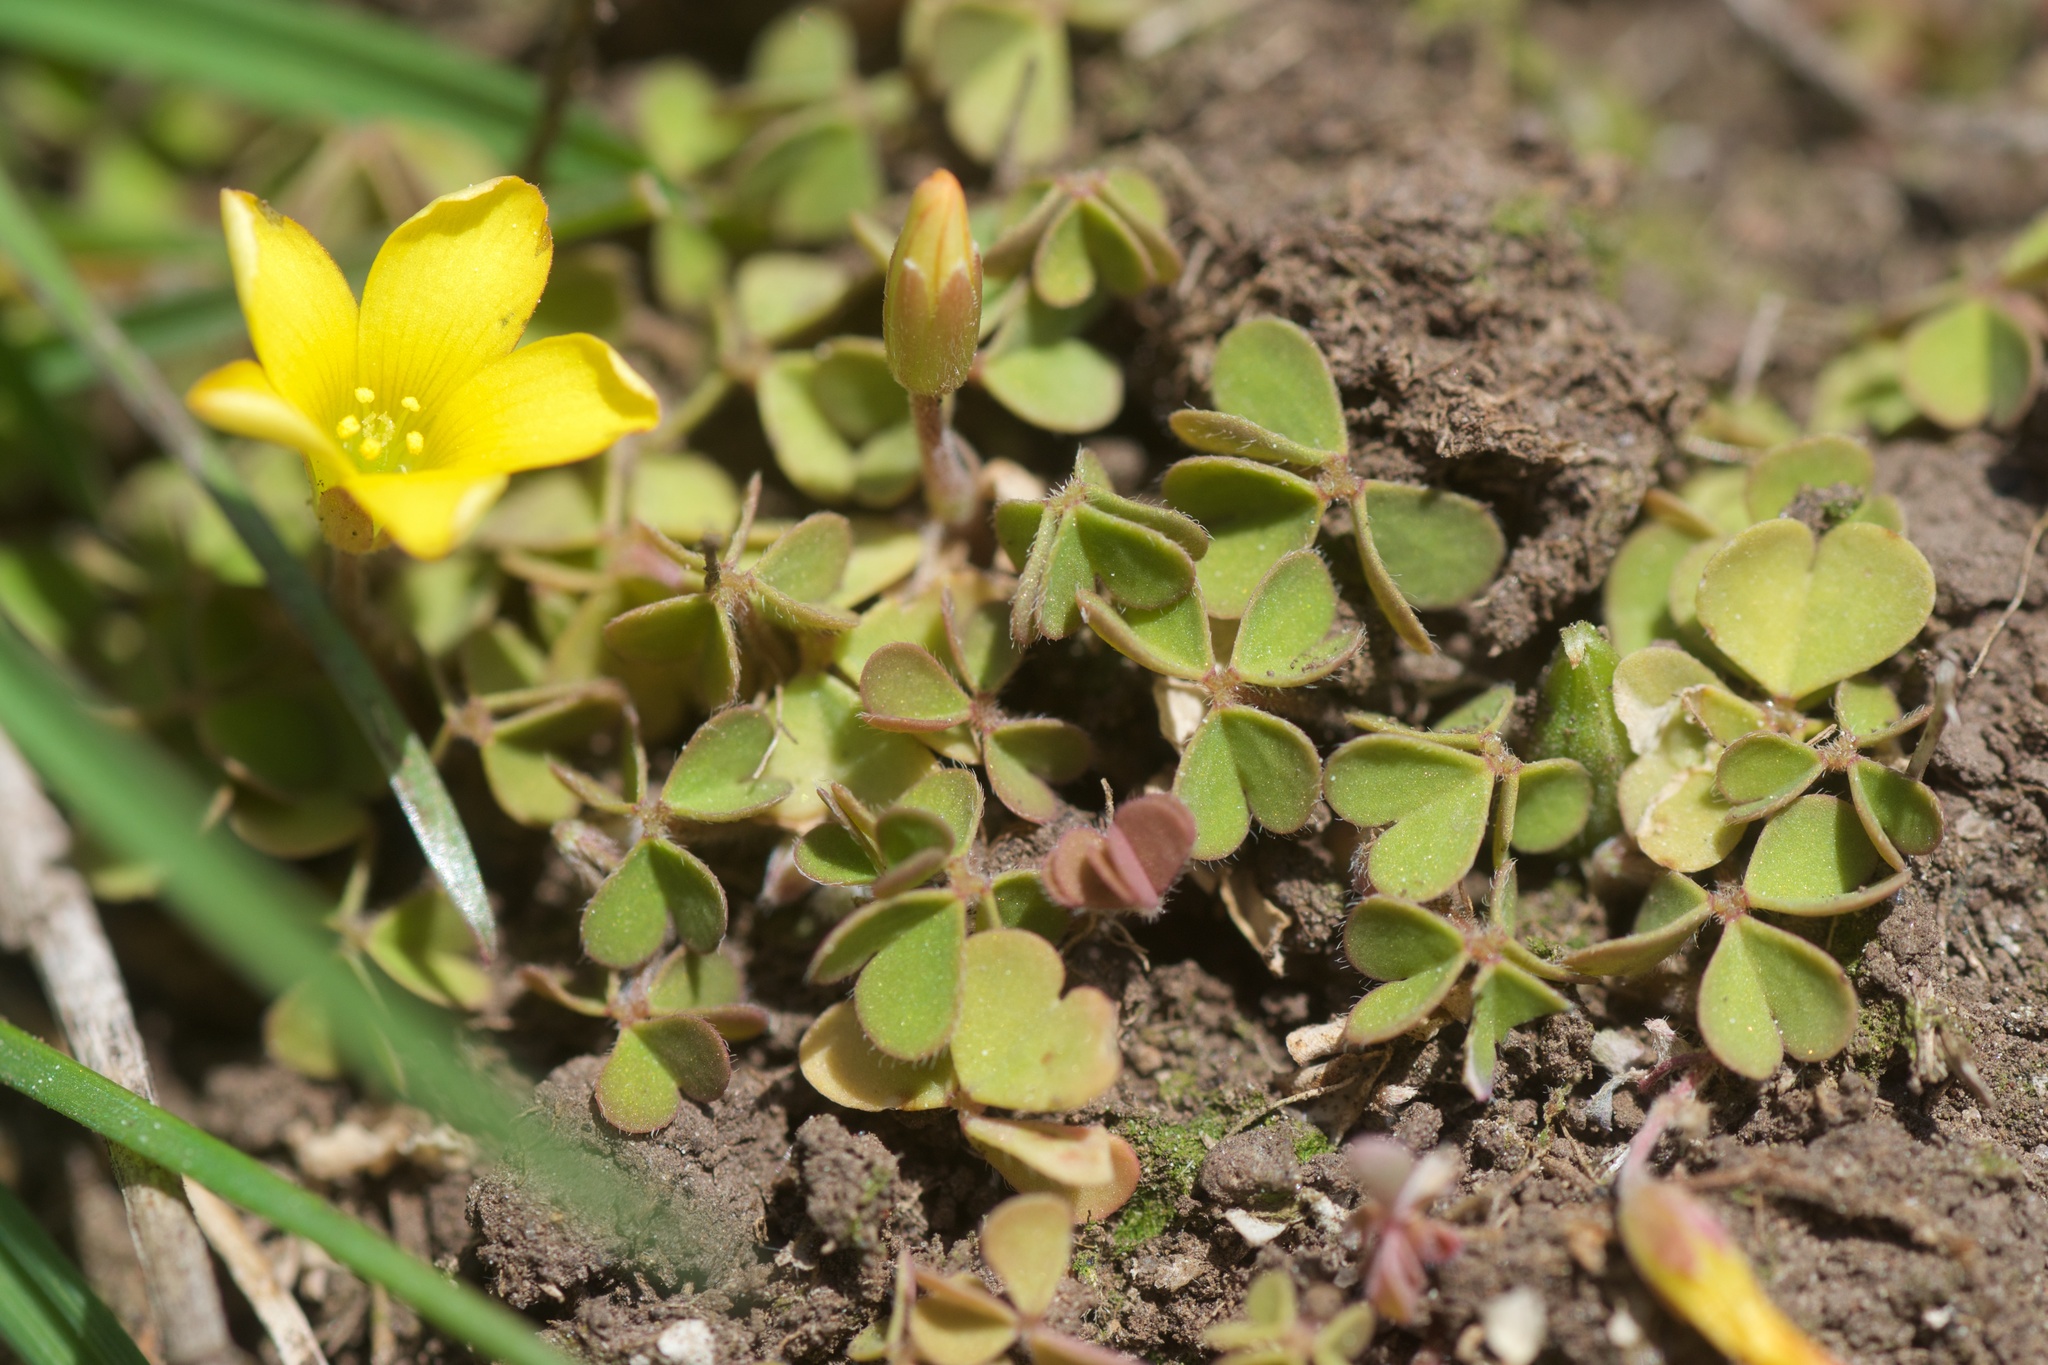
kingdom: Plantae
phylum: Tracheophyta
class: Magnoliopsida
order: Oxalidales
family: Oxalidaceae
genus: Oxalis
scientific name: Oxalis exilis
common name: Least yellow-sorrel
